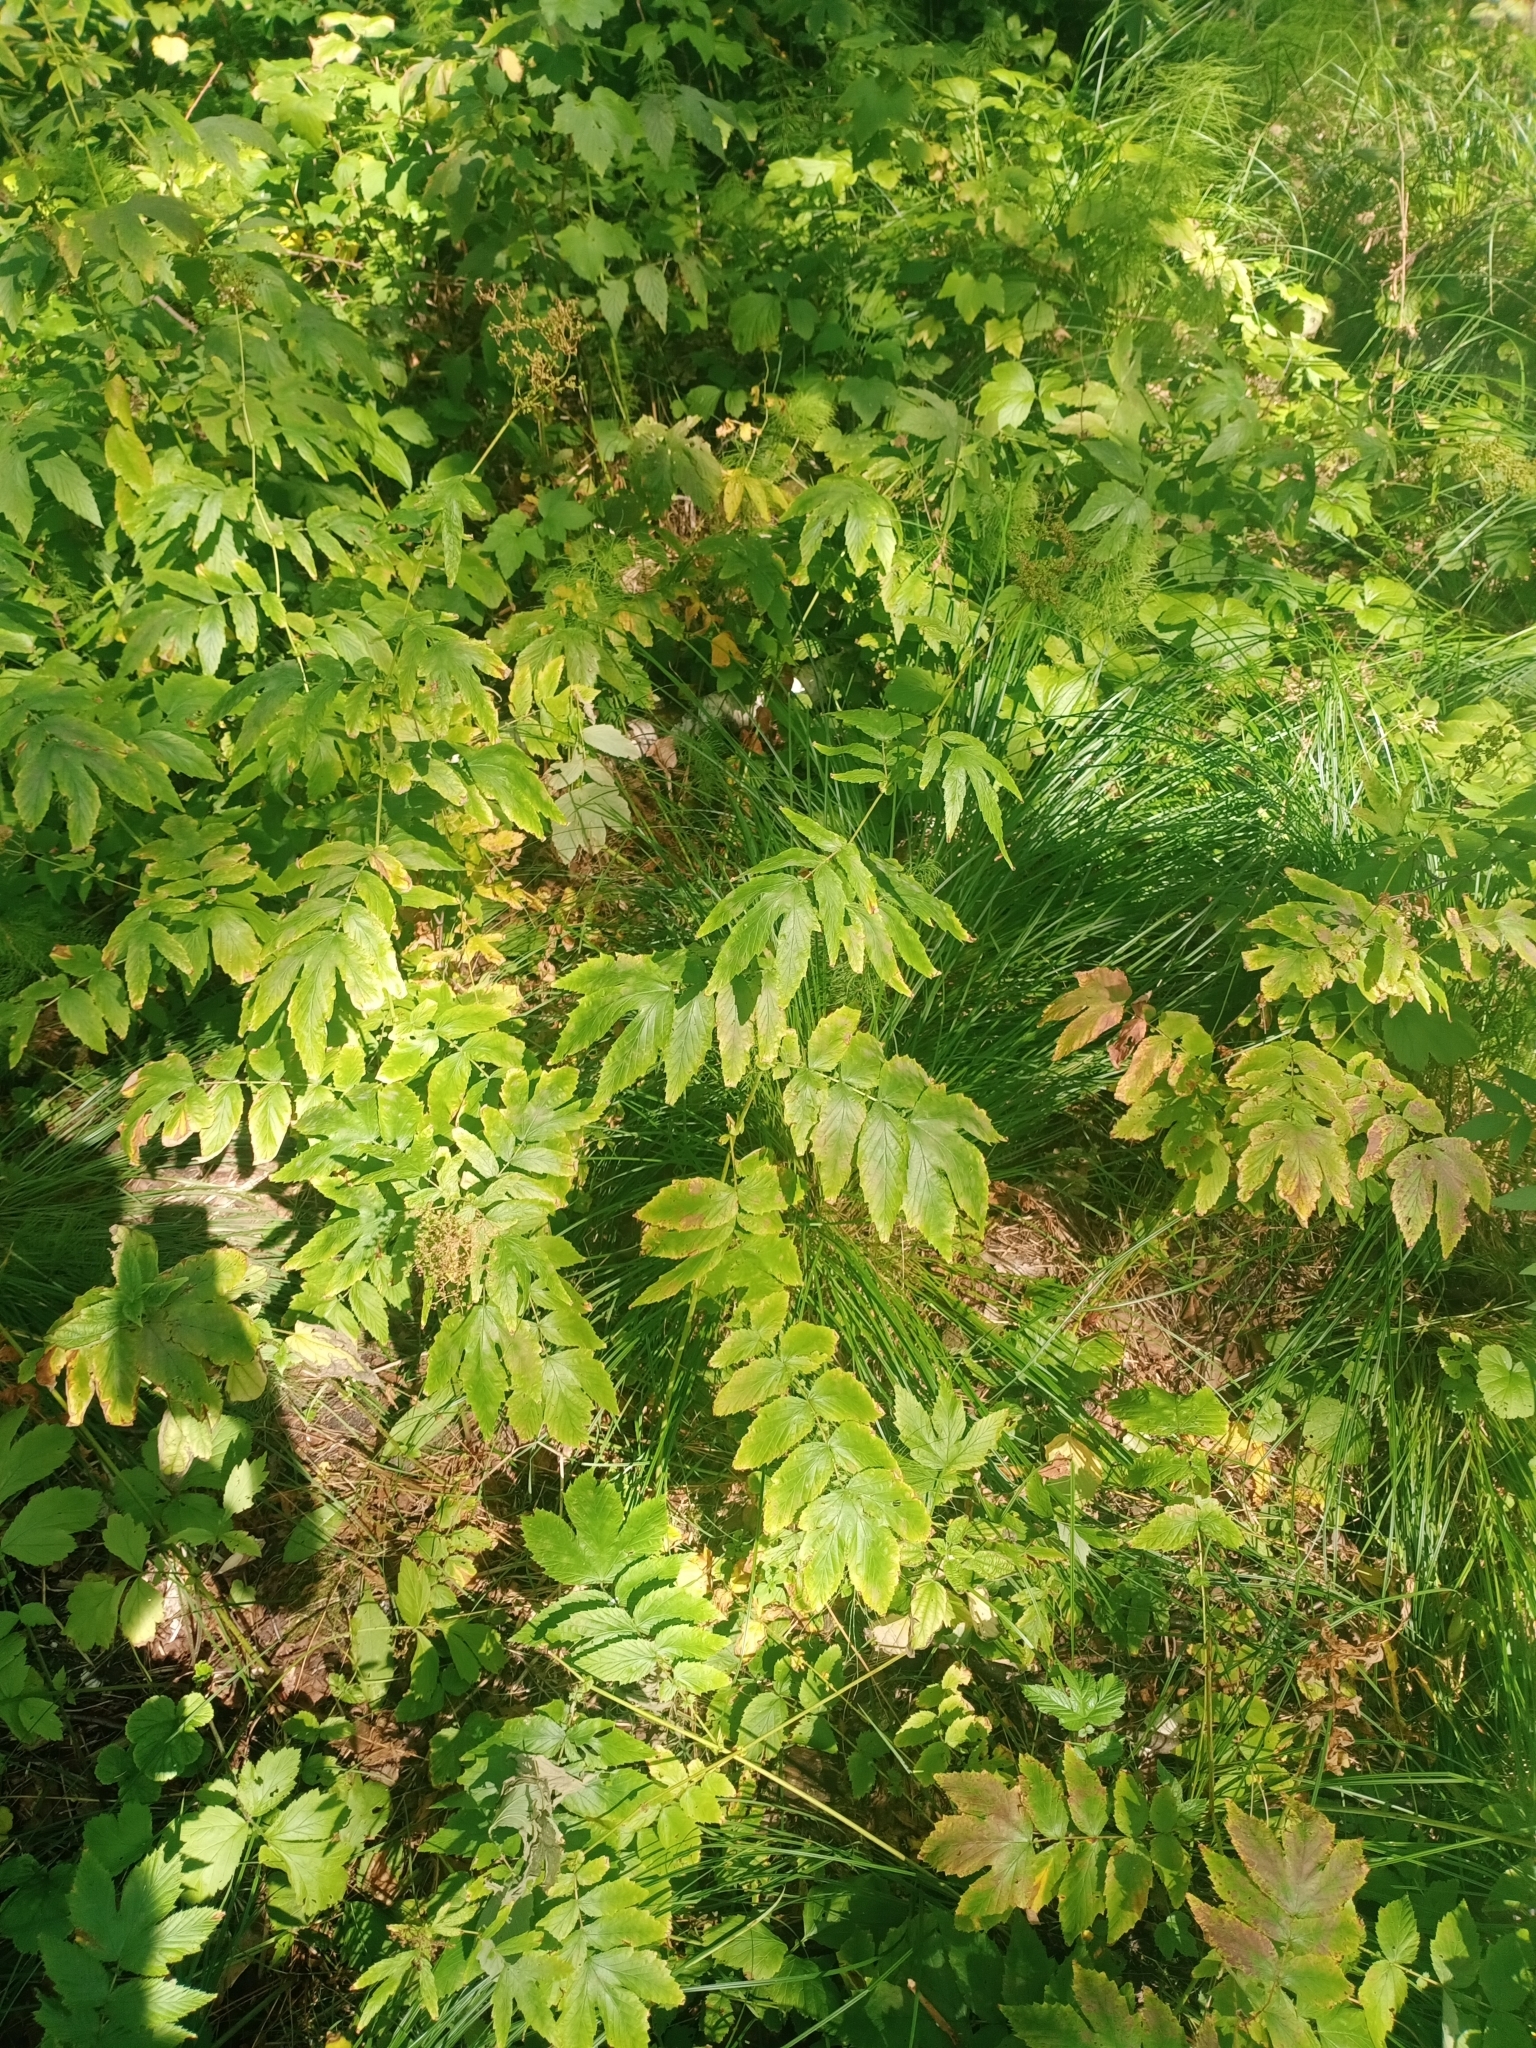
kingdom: Plantae
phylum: Tracheophyta
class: Magnoliopsida
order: Rosales
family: Rosaceae
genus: Filipendula
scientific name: Filipendula ulmaria
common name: Meadowsweet
